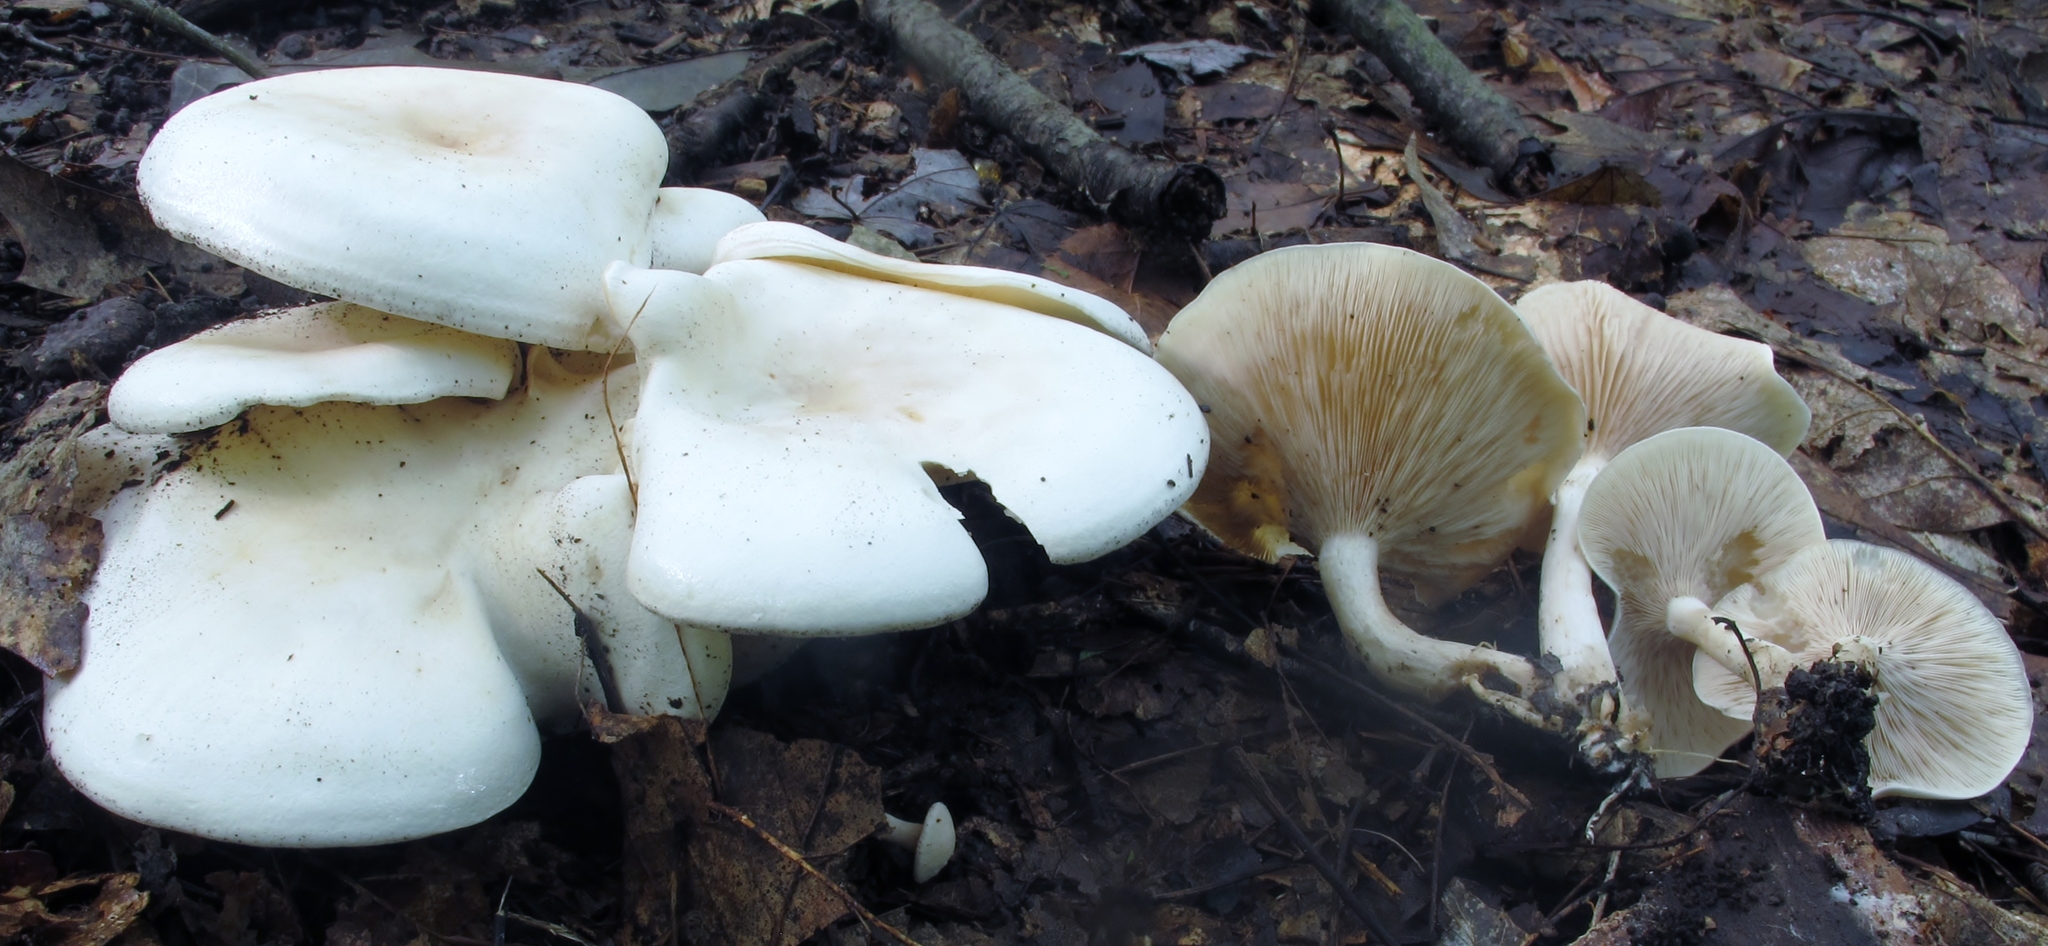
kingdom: Fungi
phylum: Basidiomycota
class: Agaricomycetes
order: Agaricales
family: Tricholomataceae
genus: Lepista
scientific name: Lepista subconnexa
